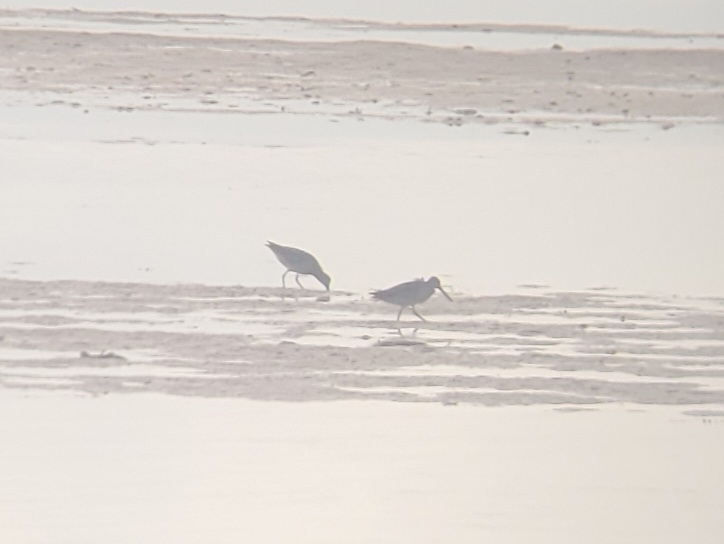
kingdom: Animalia
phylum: Chordata
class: Aves
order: Charadriiformes
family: Scolopacidae
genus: Limnodromus
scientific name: Limnodromus
